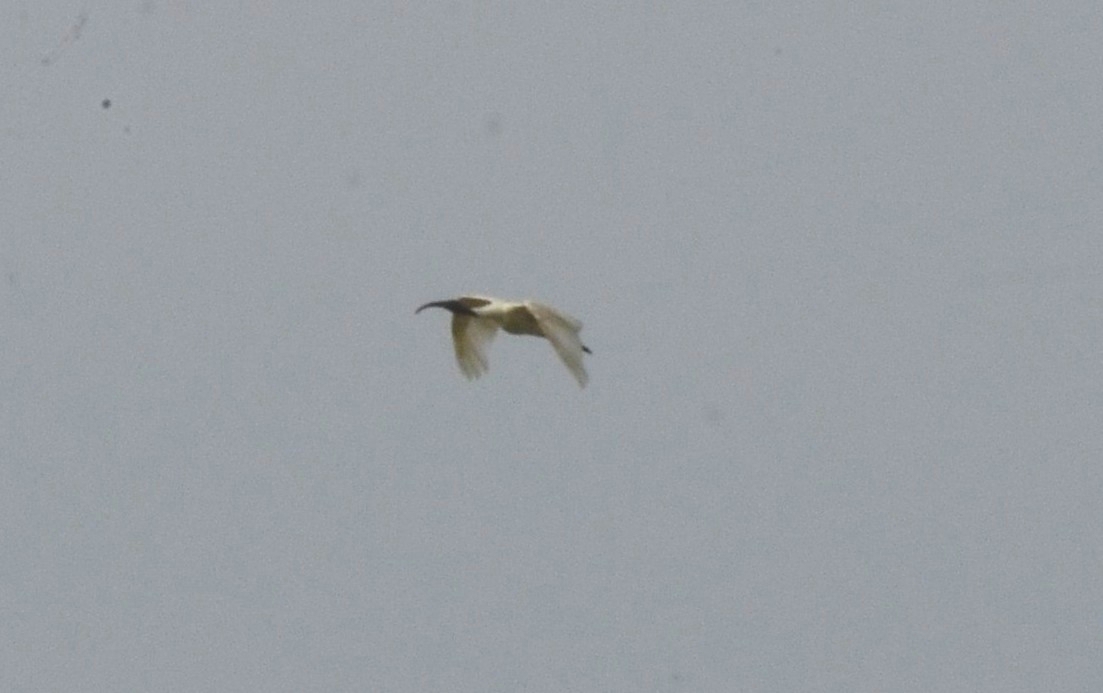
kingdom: Animalia
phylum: Chordata
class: Aves
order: Pelecaniformes
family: Threskiornithidae
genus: Threskiornis
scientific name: Threskiornis melanocephalus
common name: Black-headed ibis
